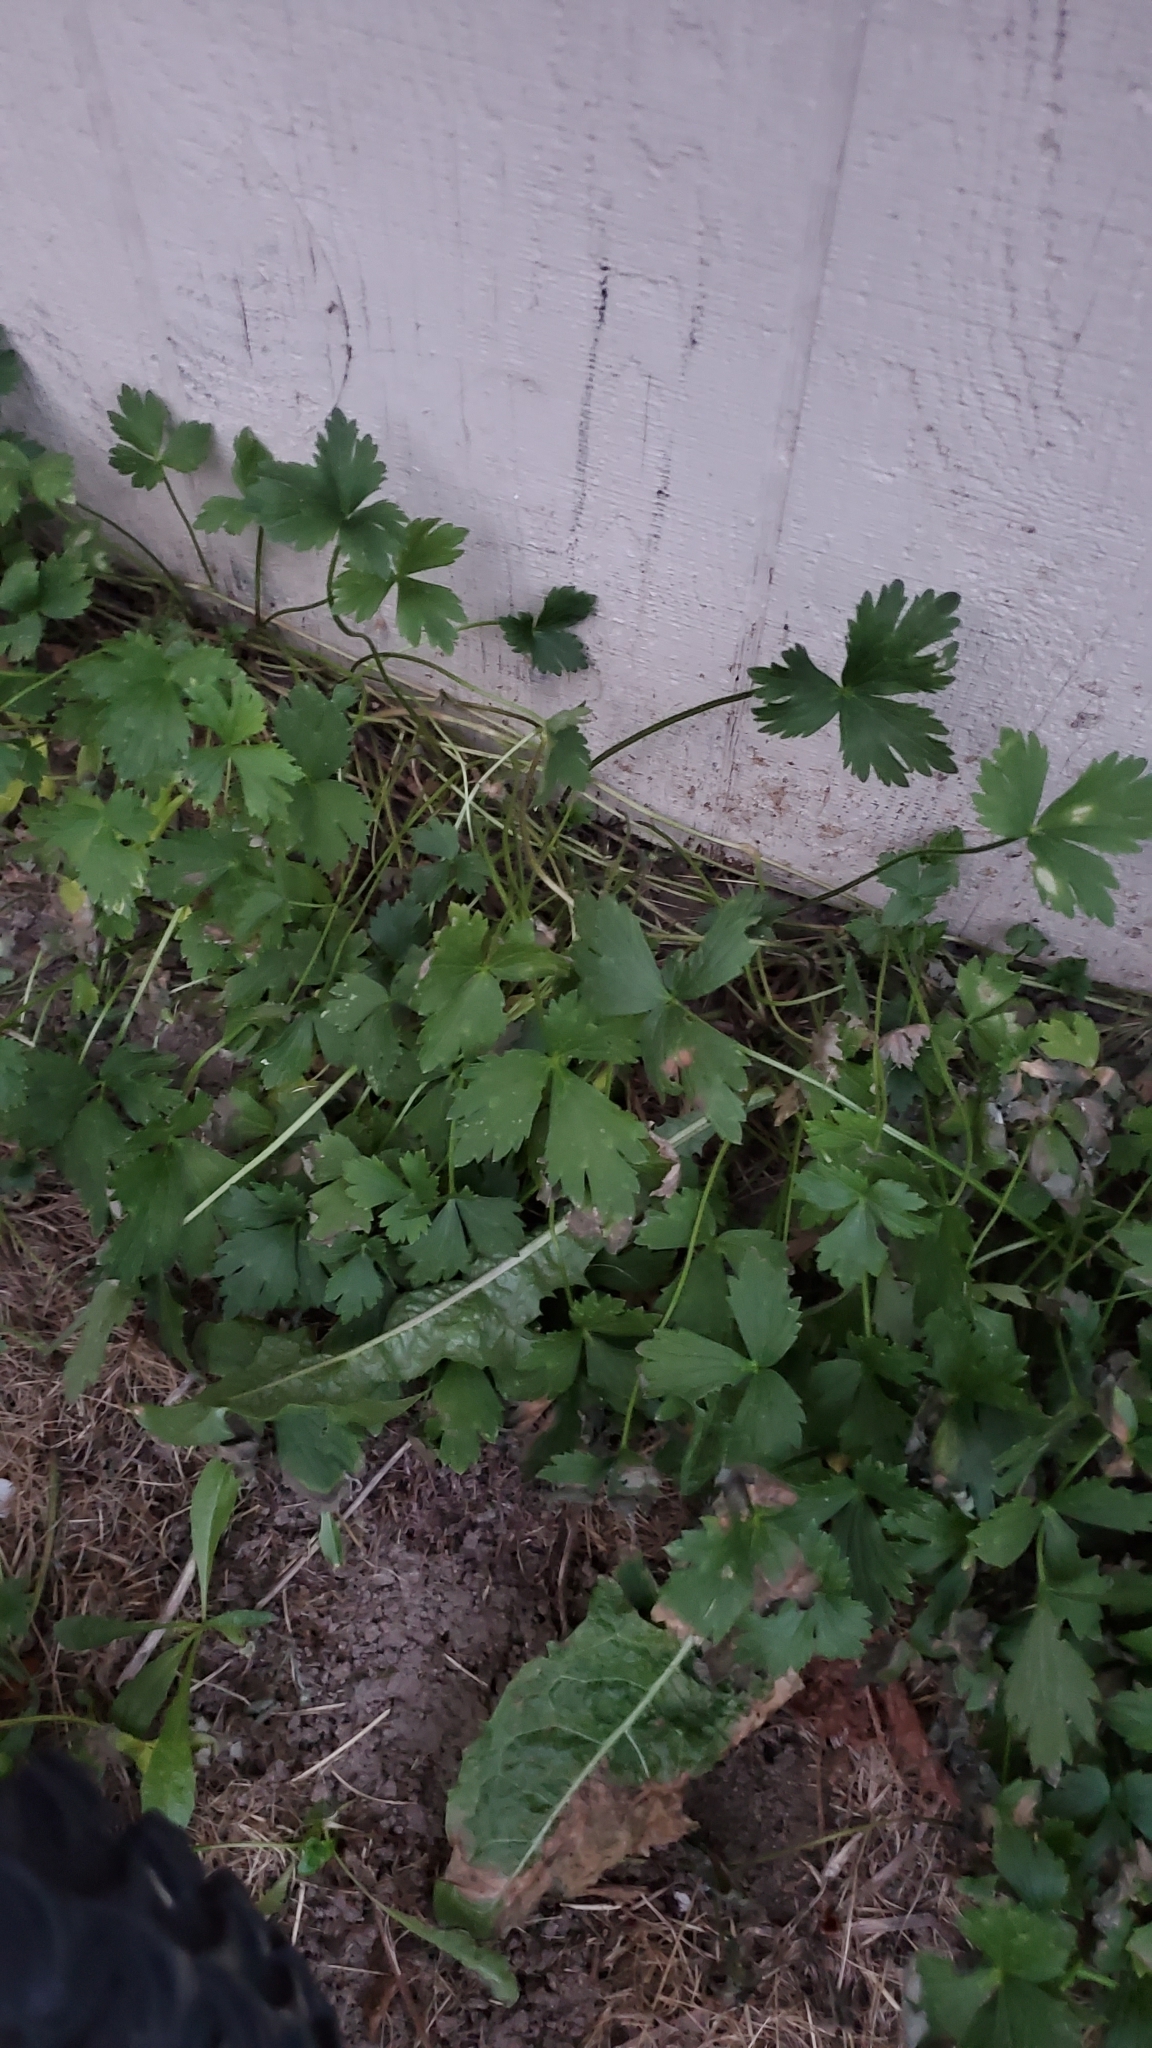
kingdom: Plantae
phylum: Tracheophyta
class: Magnoliopsida
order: Ranunculales
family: Ranunculaceae
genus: Ranunculus
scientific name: Ranunculus repens
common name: Creeping buttercup
